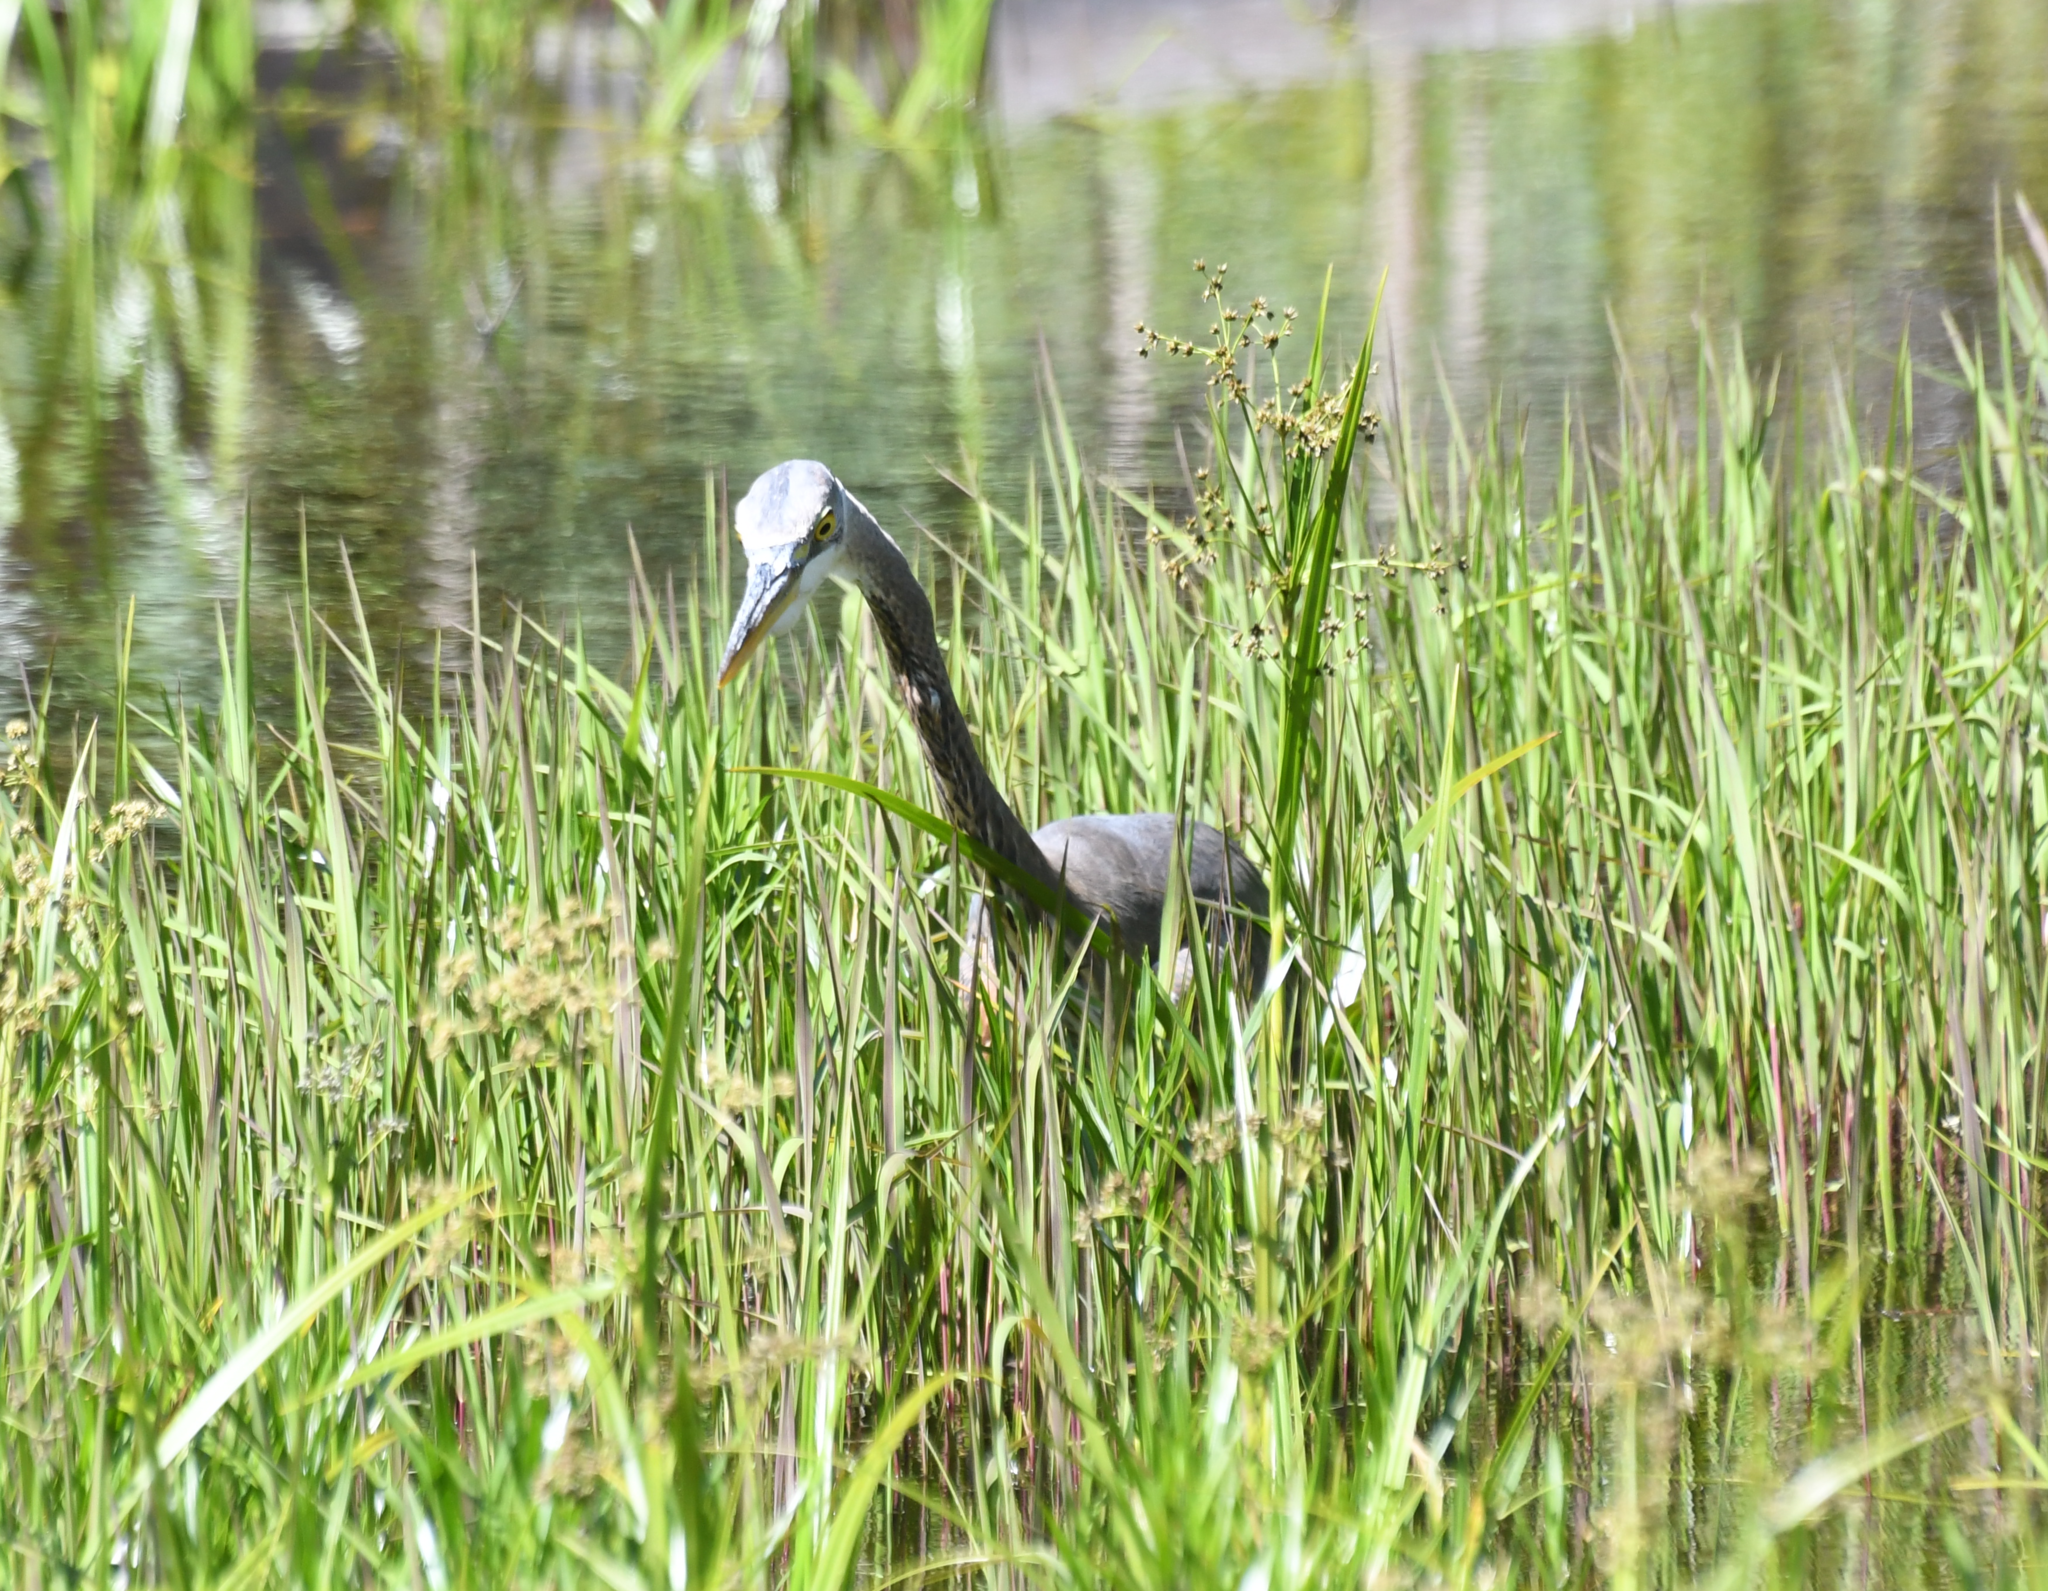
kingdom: Animalia
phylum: Chordata
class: Aves
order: Pelecaniformes
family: Ardeidae
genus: Ardea
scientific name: Ardea herodias
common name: Great blue heron
